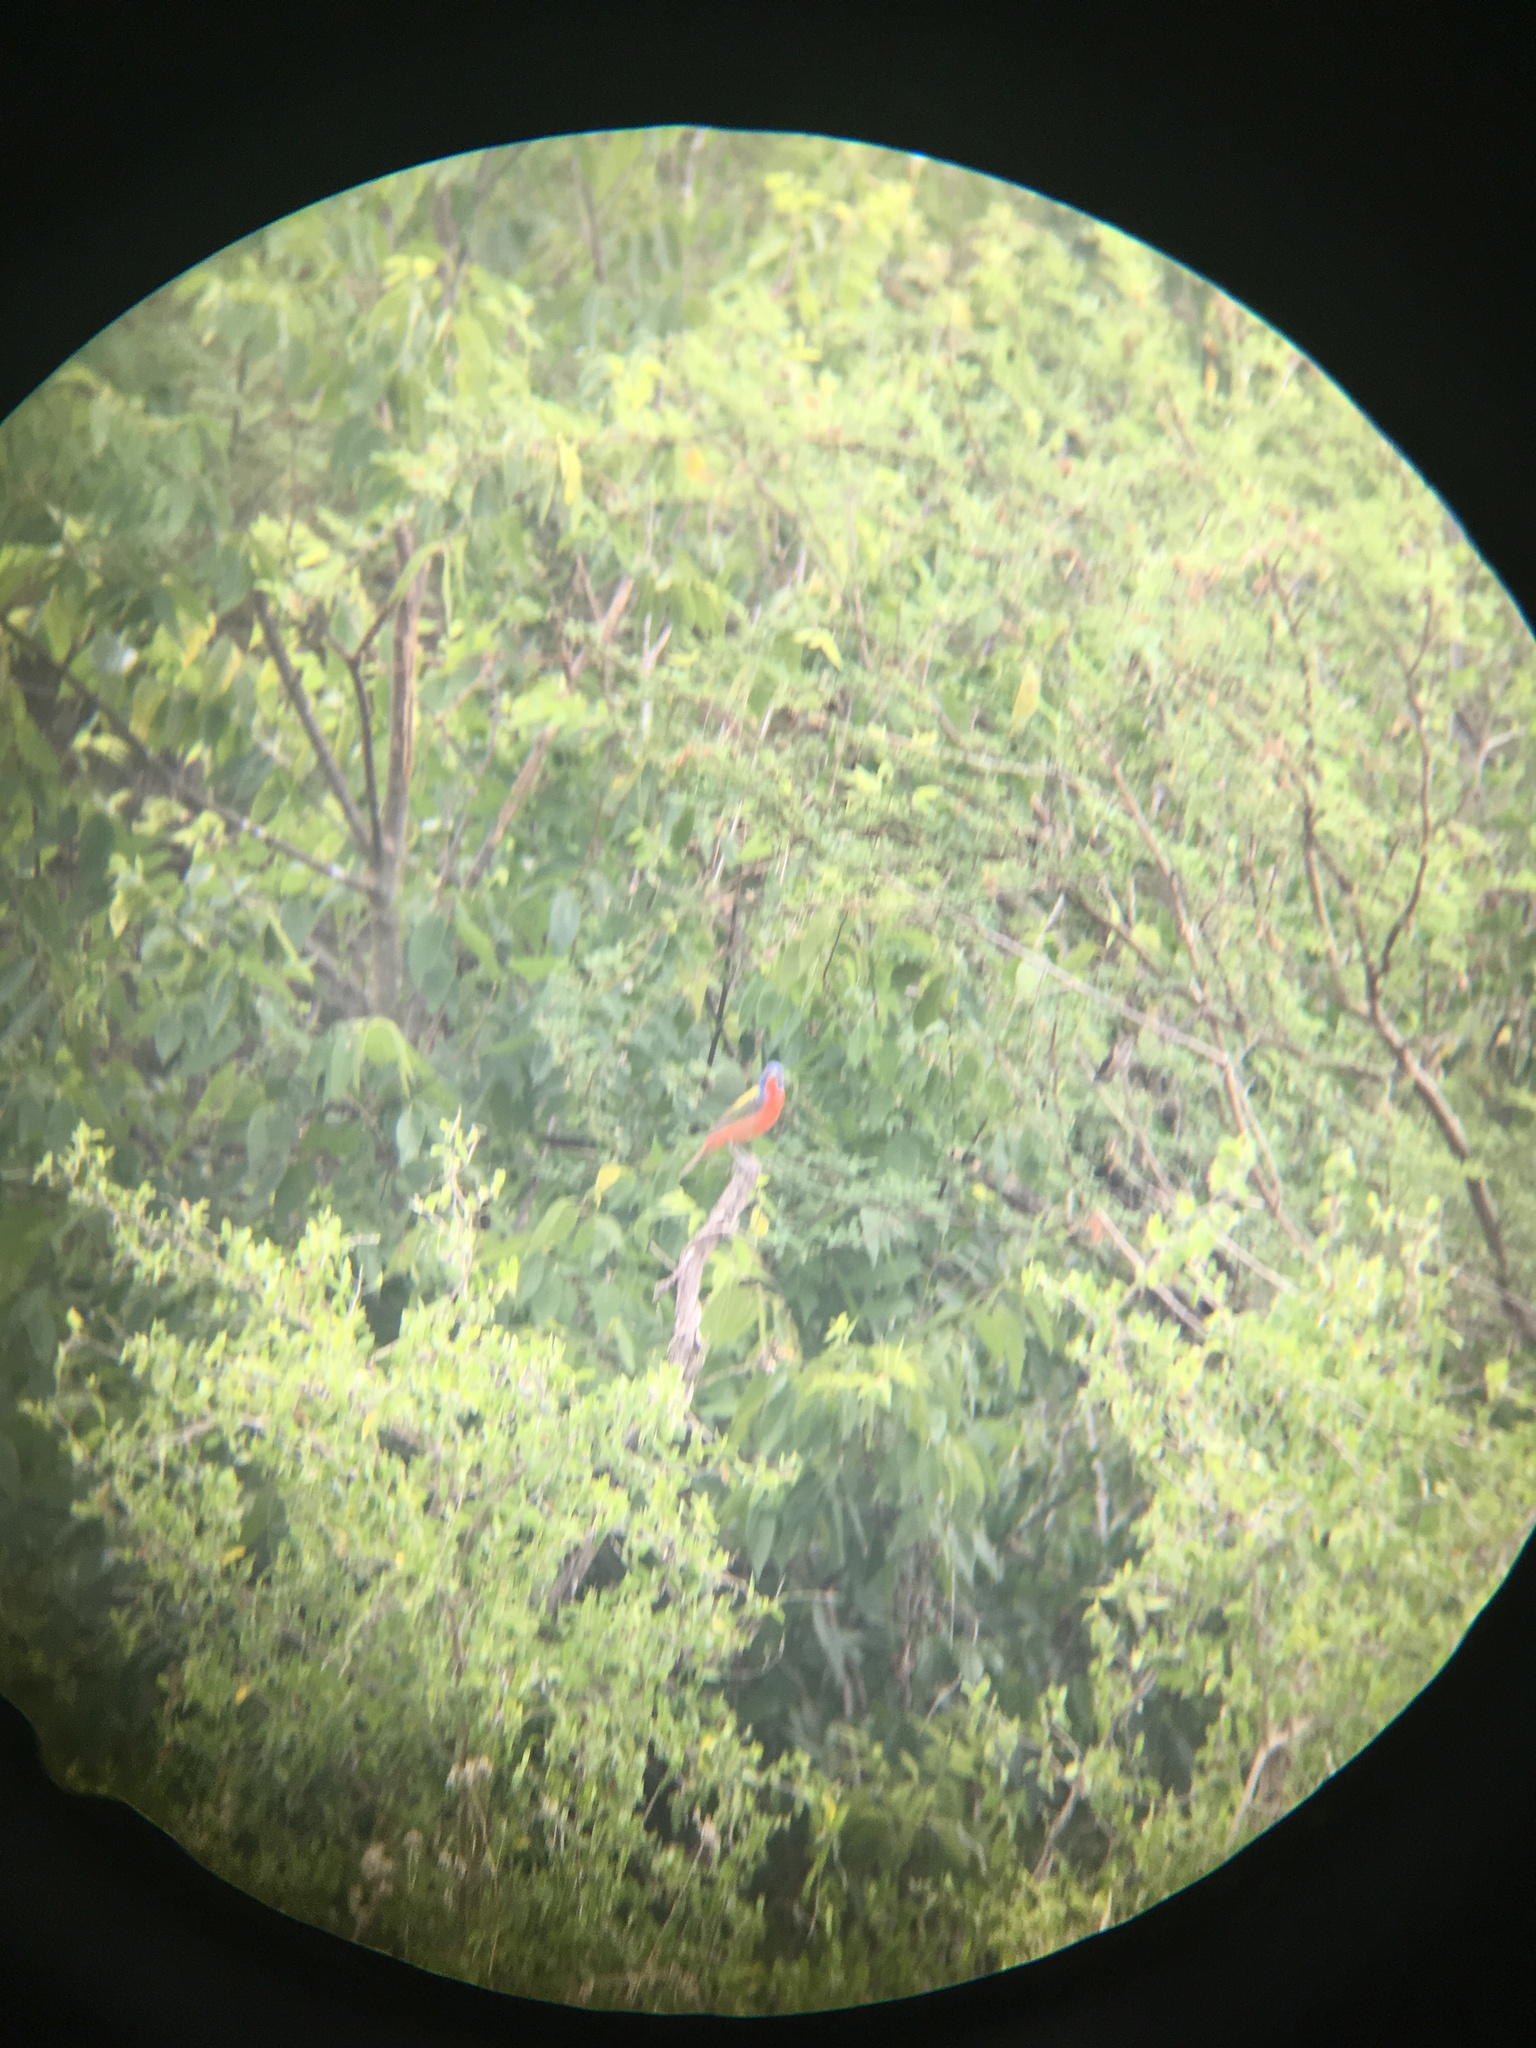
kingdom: Animalia
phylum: Chordata
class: Aves
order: Passeriformes
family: Cardinalidae
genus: Passerina
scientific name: Passerina ciris
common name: Painted bunting
